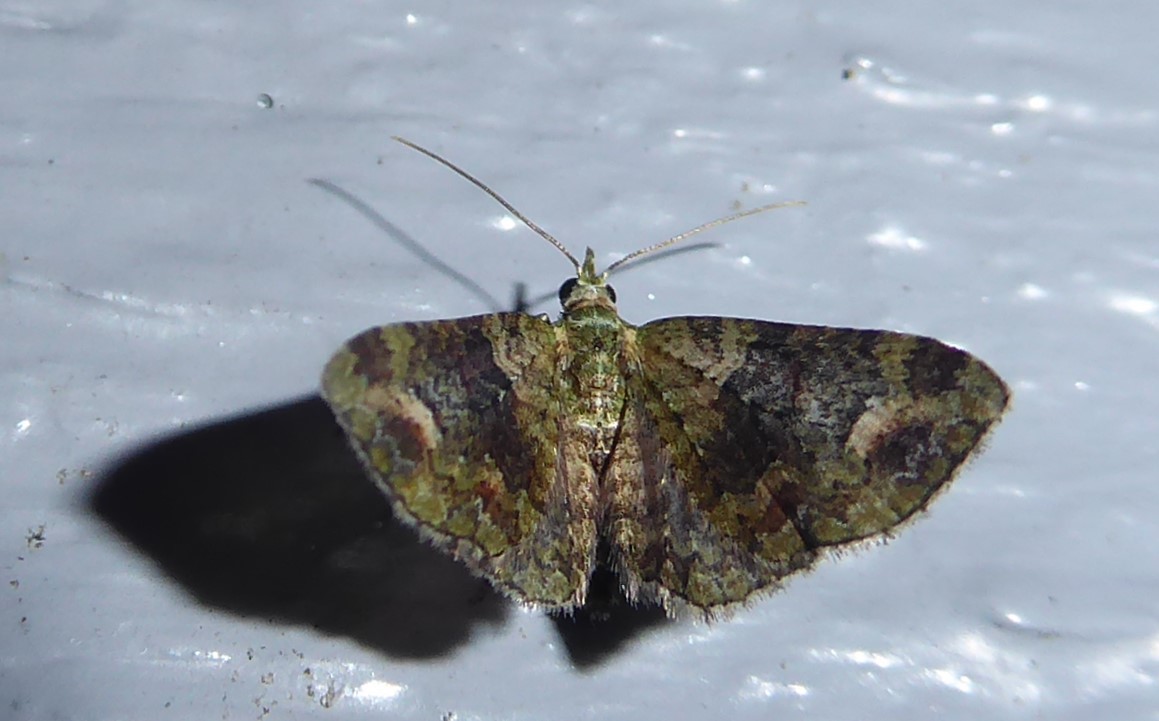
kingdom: Animalia
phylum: Arthropoda
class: Insecta
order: Lepidoptera
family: Geometridae
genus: Idaea
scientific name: Idaea mutanda
